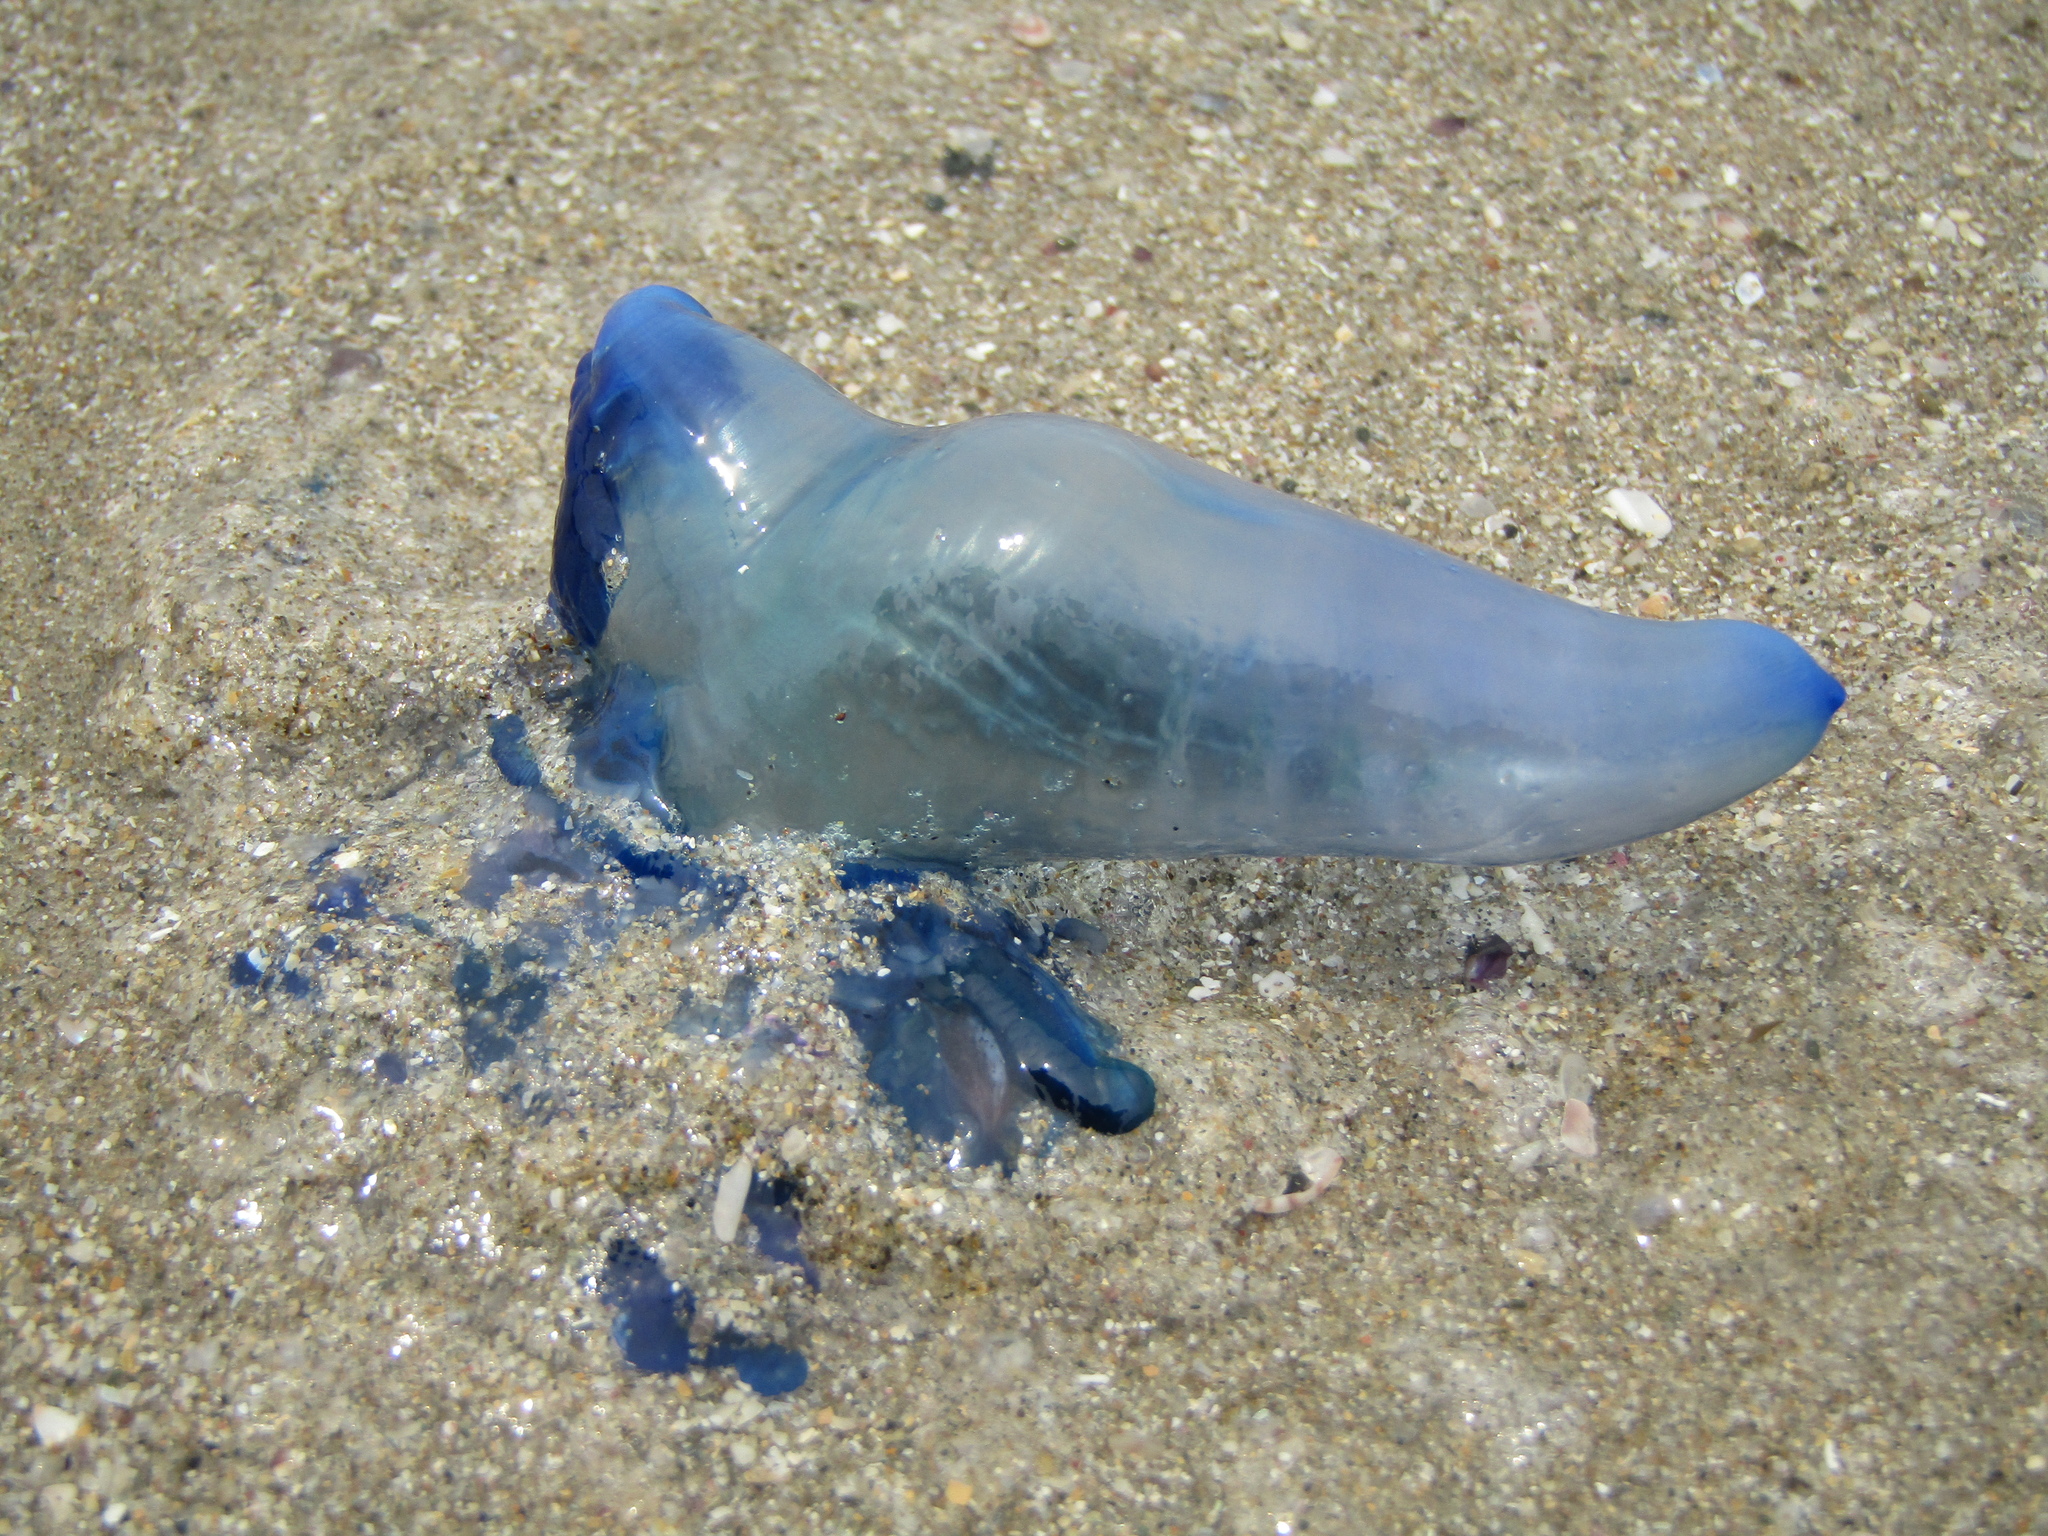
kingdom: Animalia
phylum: Cnidaria
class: Hydrozoa
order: Siphonophorae
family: Physaliidae
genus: Physalia
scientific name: Physalia physalis
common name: Portuguese man-of-war
